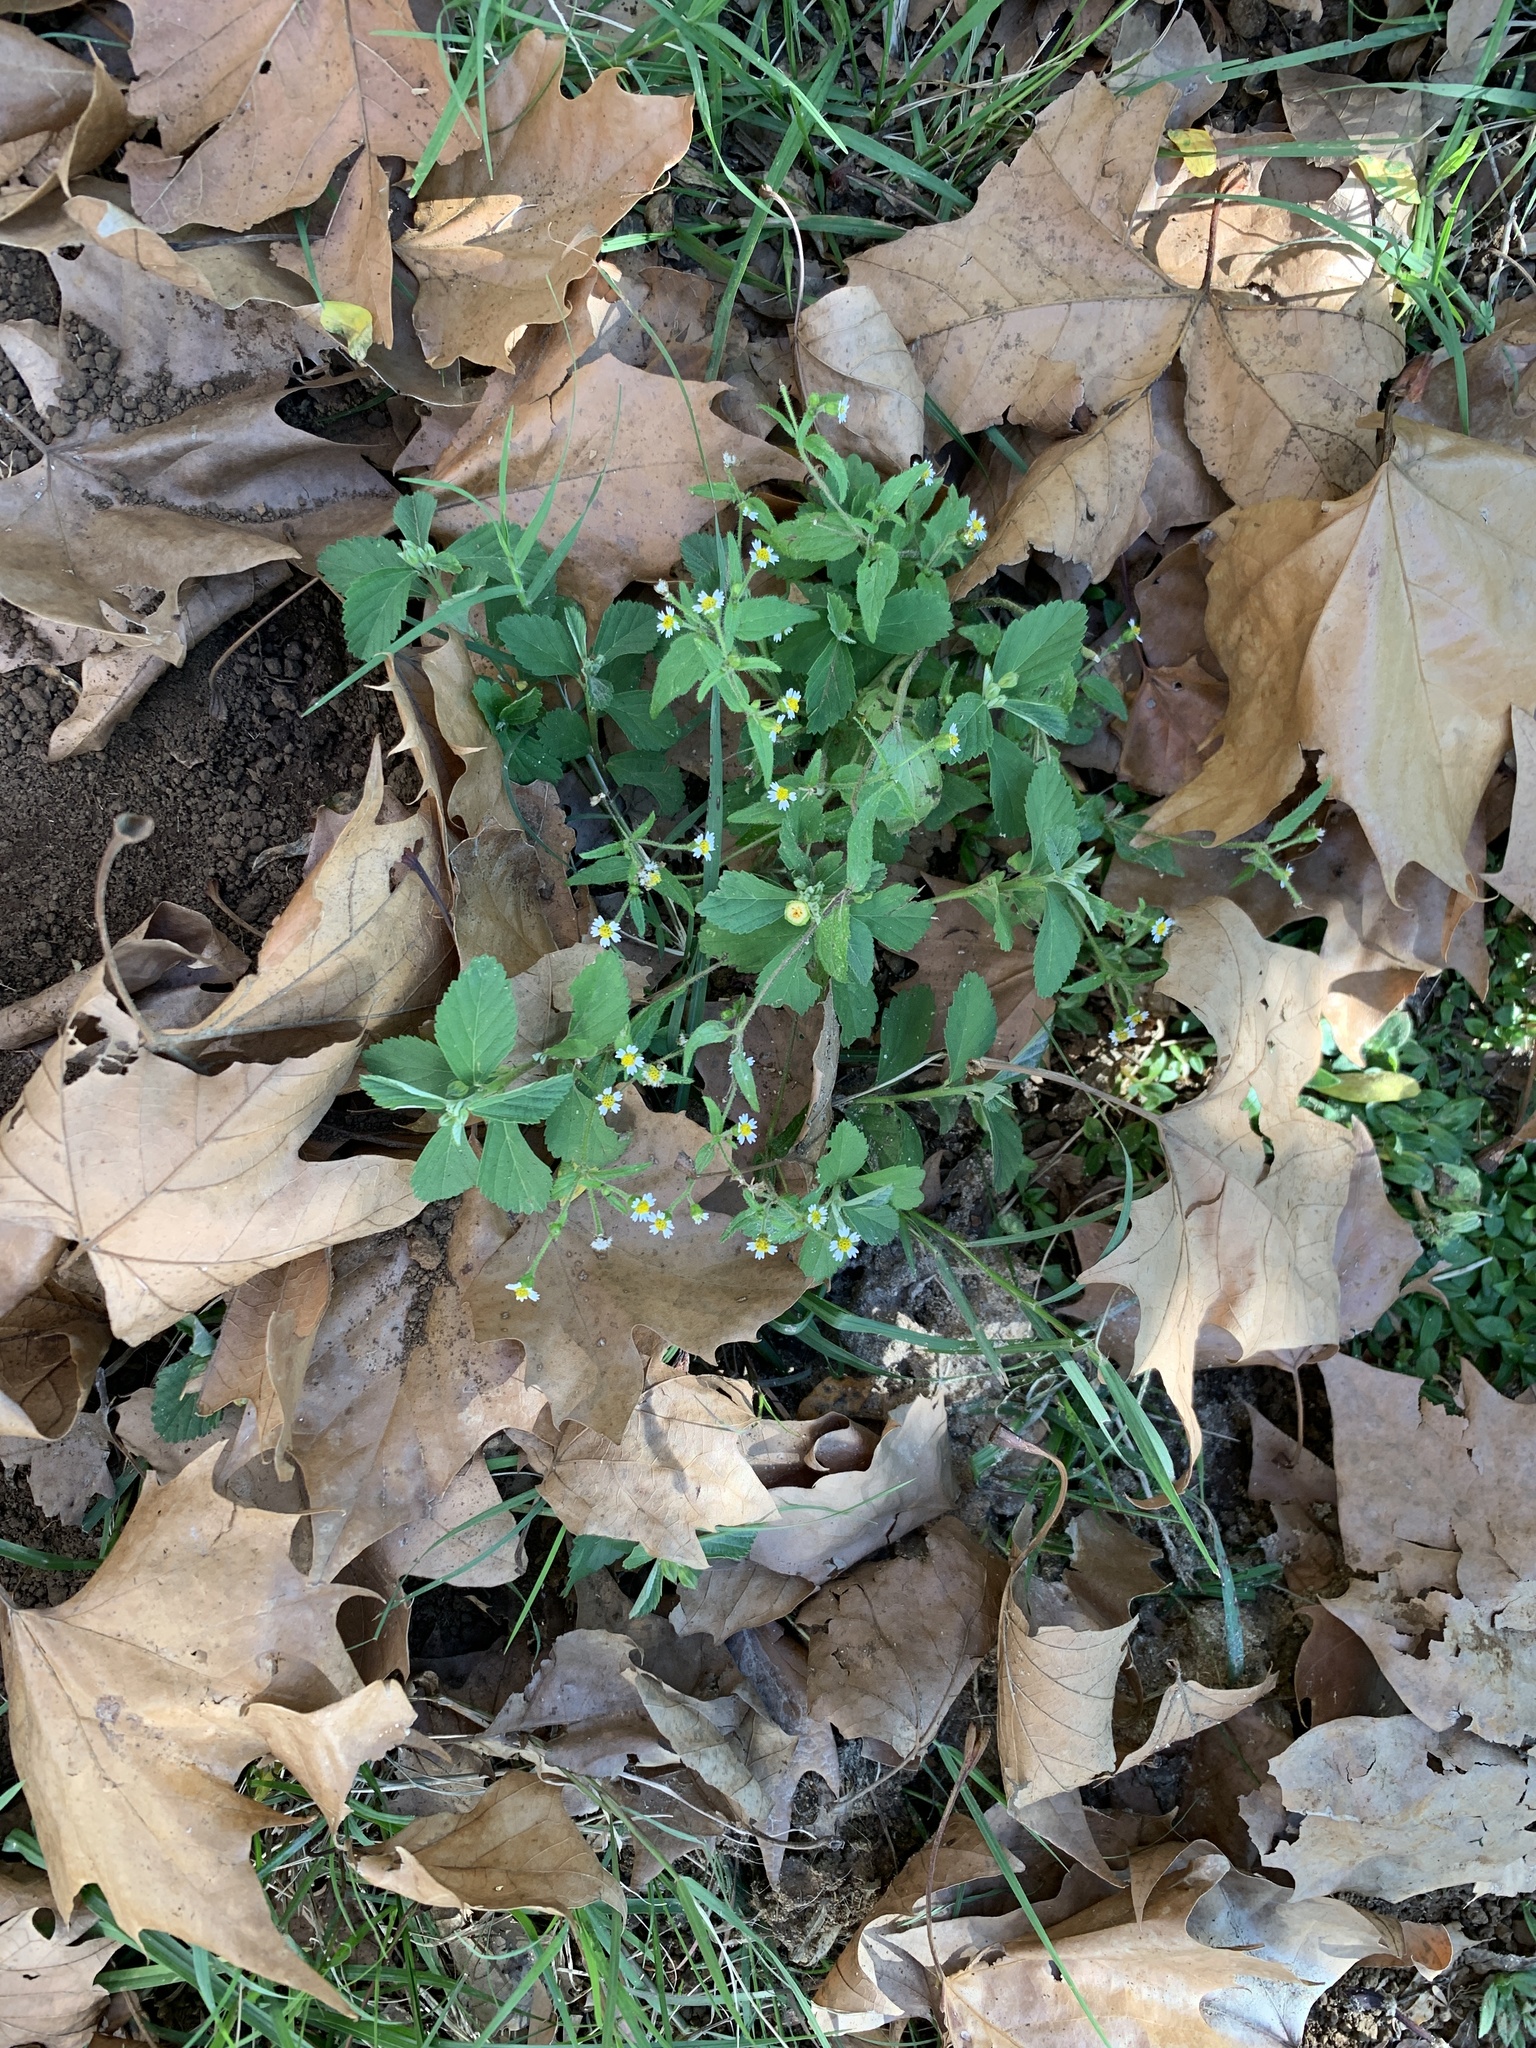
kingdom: Plantae
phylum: Tracheophyta
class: Magnoliopsida
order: Asterales
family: Asteraceae
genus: Galinsoga
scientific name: Galinsoga quadriradiata
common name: Shaggy soldier
